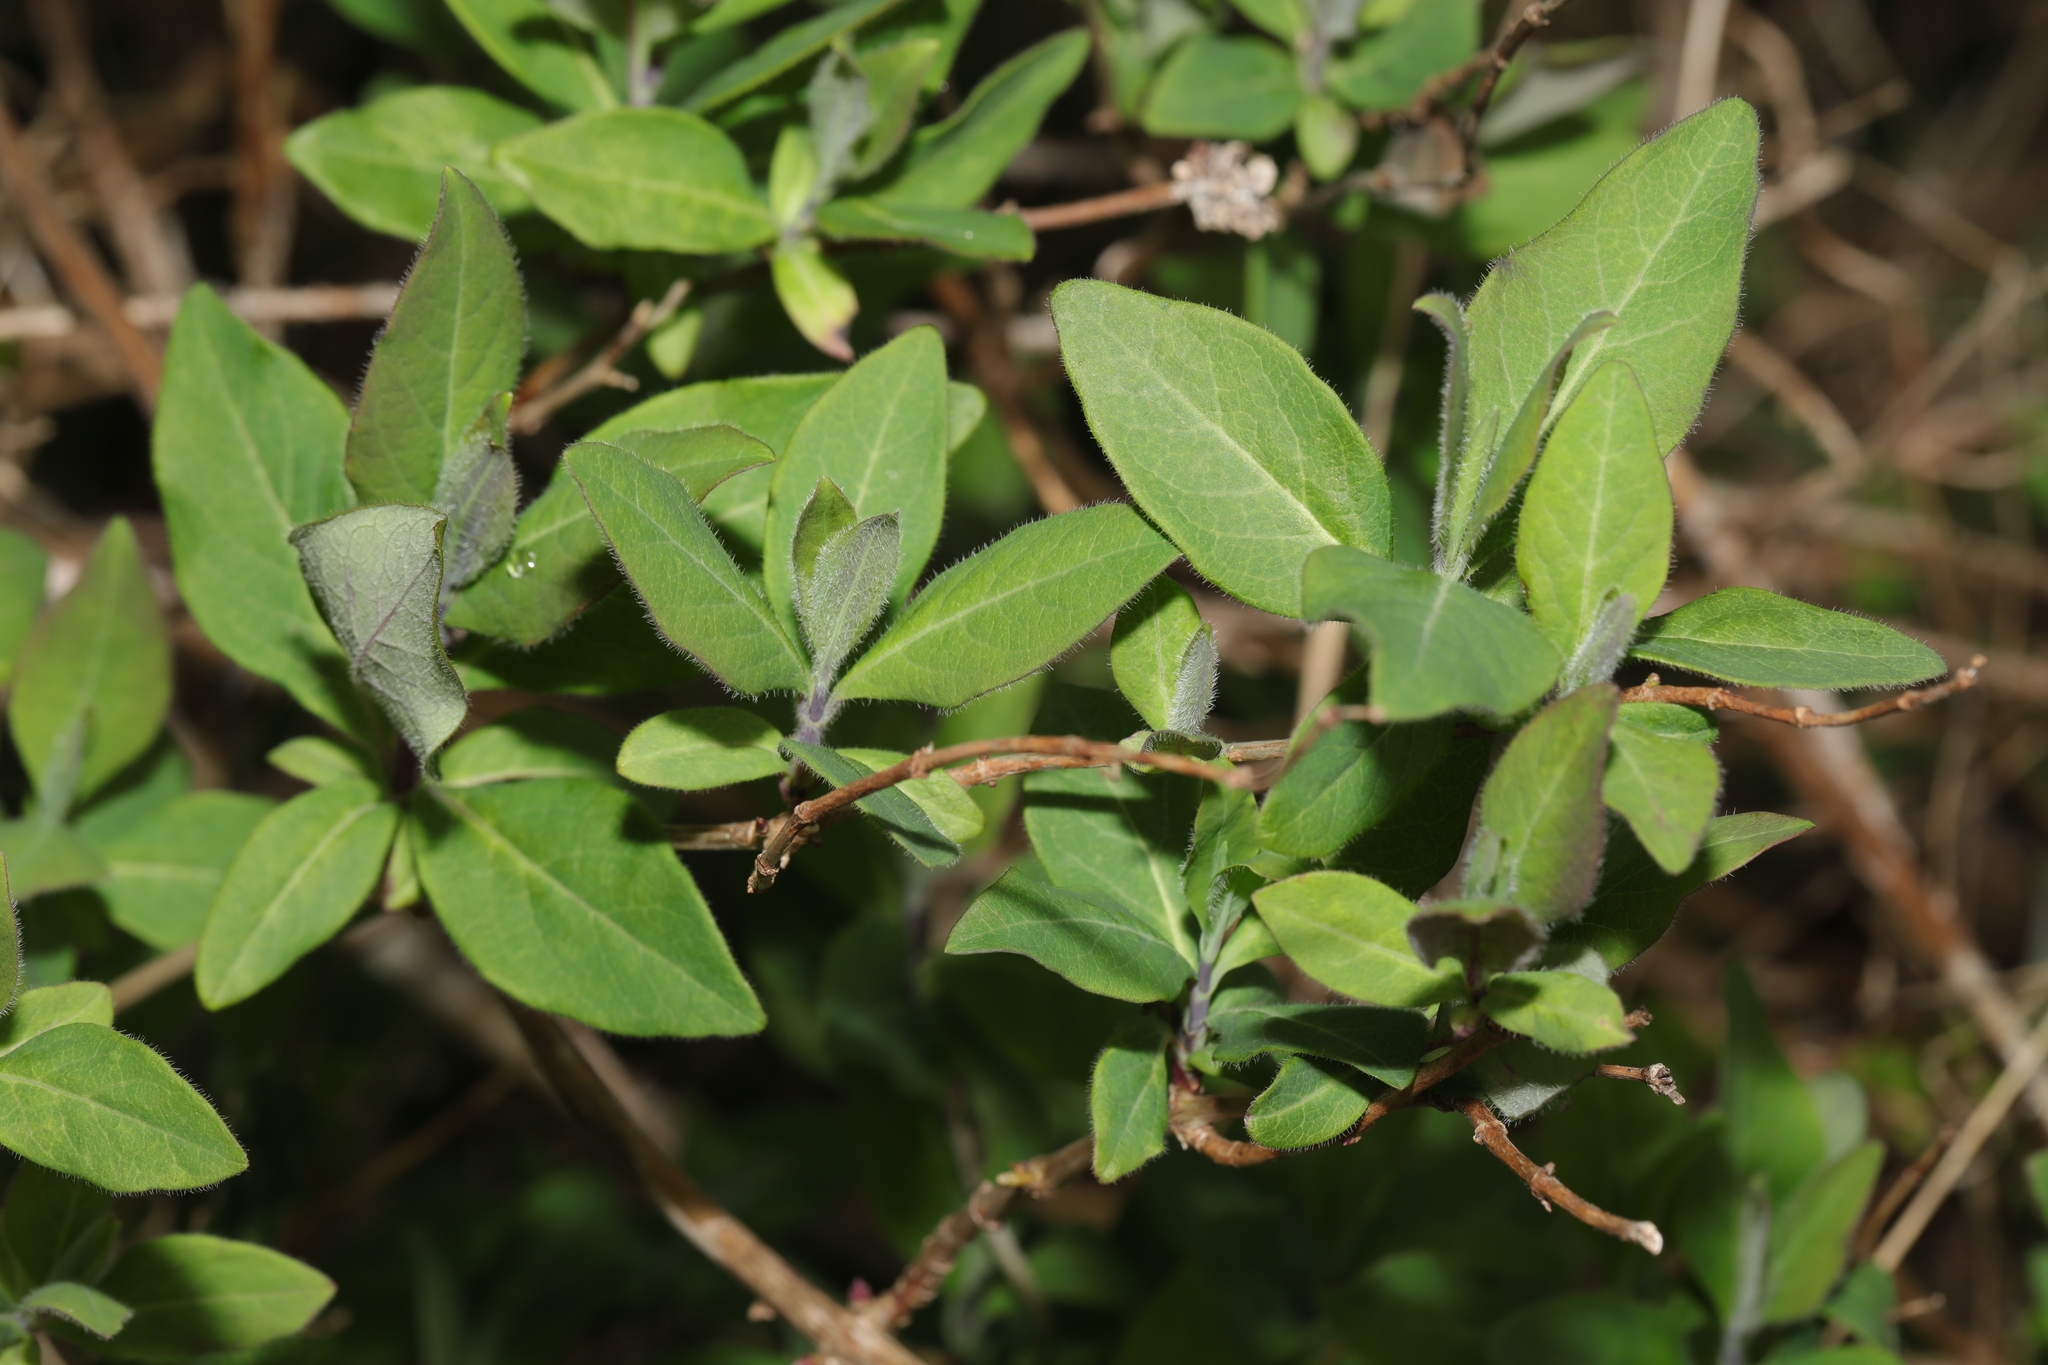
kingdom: Plantae
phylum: Tracheophyta
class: Magnoliopsida
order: Dipsacales
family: Caprifoliaceae
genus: Lonicera
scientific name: Lonicera periclymenum
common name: European honeysuckle
